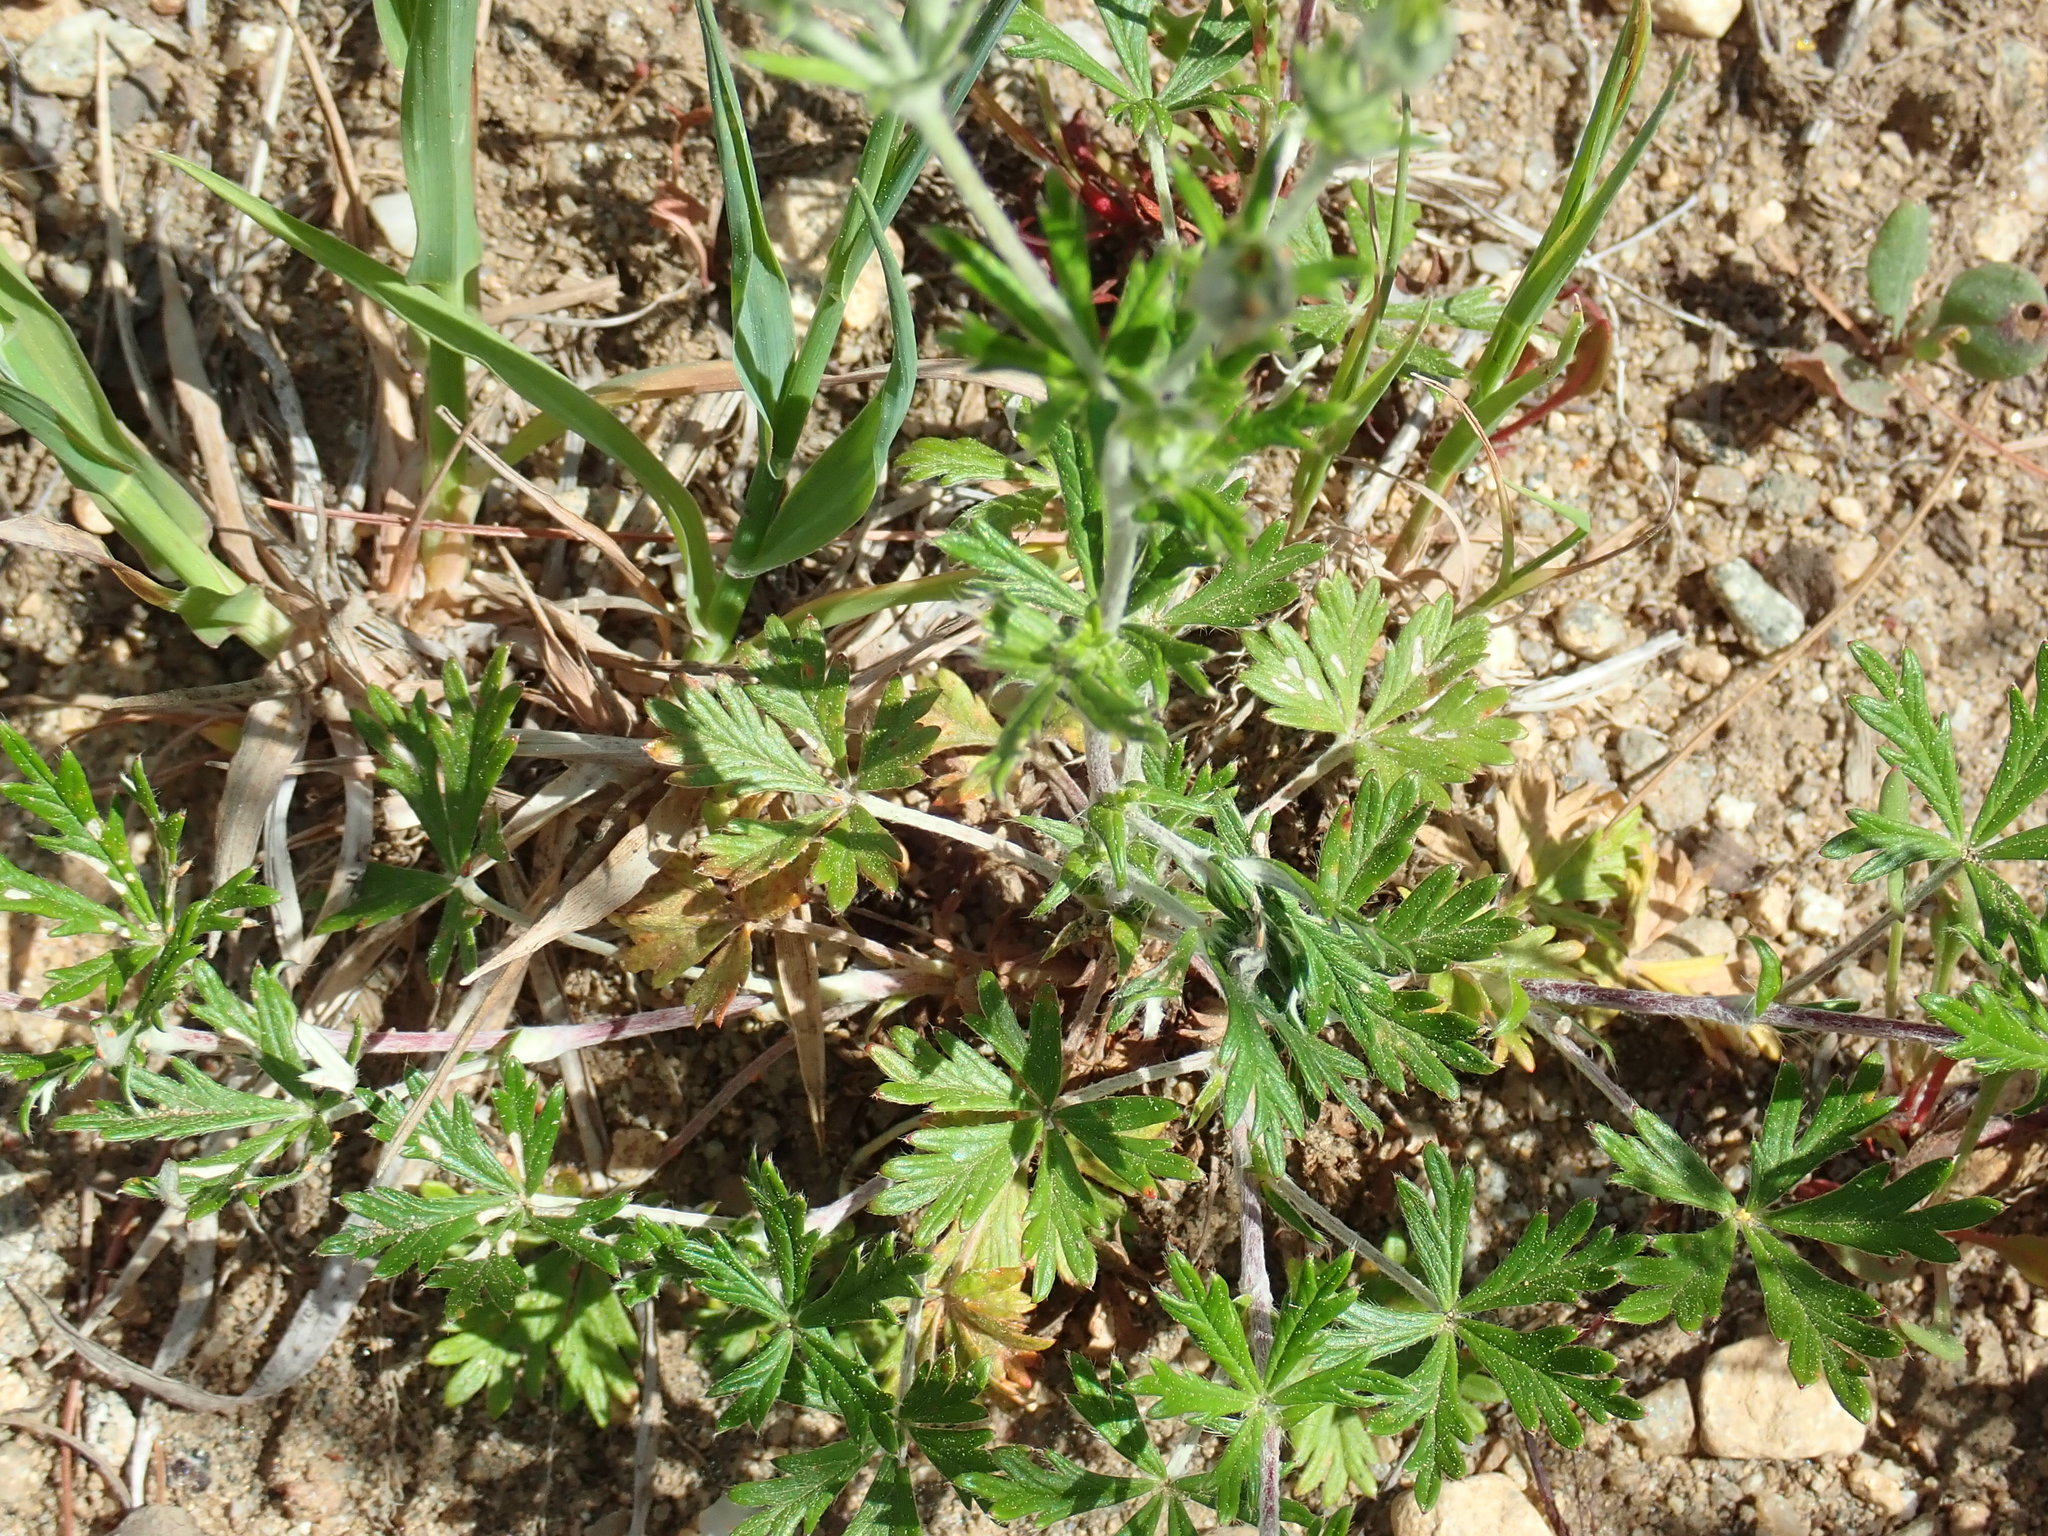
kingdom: Plantae
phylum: Tracheophyta
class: Magnoliopsida
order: Rosales
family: Rosaceae
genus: Potentilla
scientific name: Potentilla argentea
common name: Hoary cinquefoil
